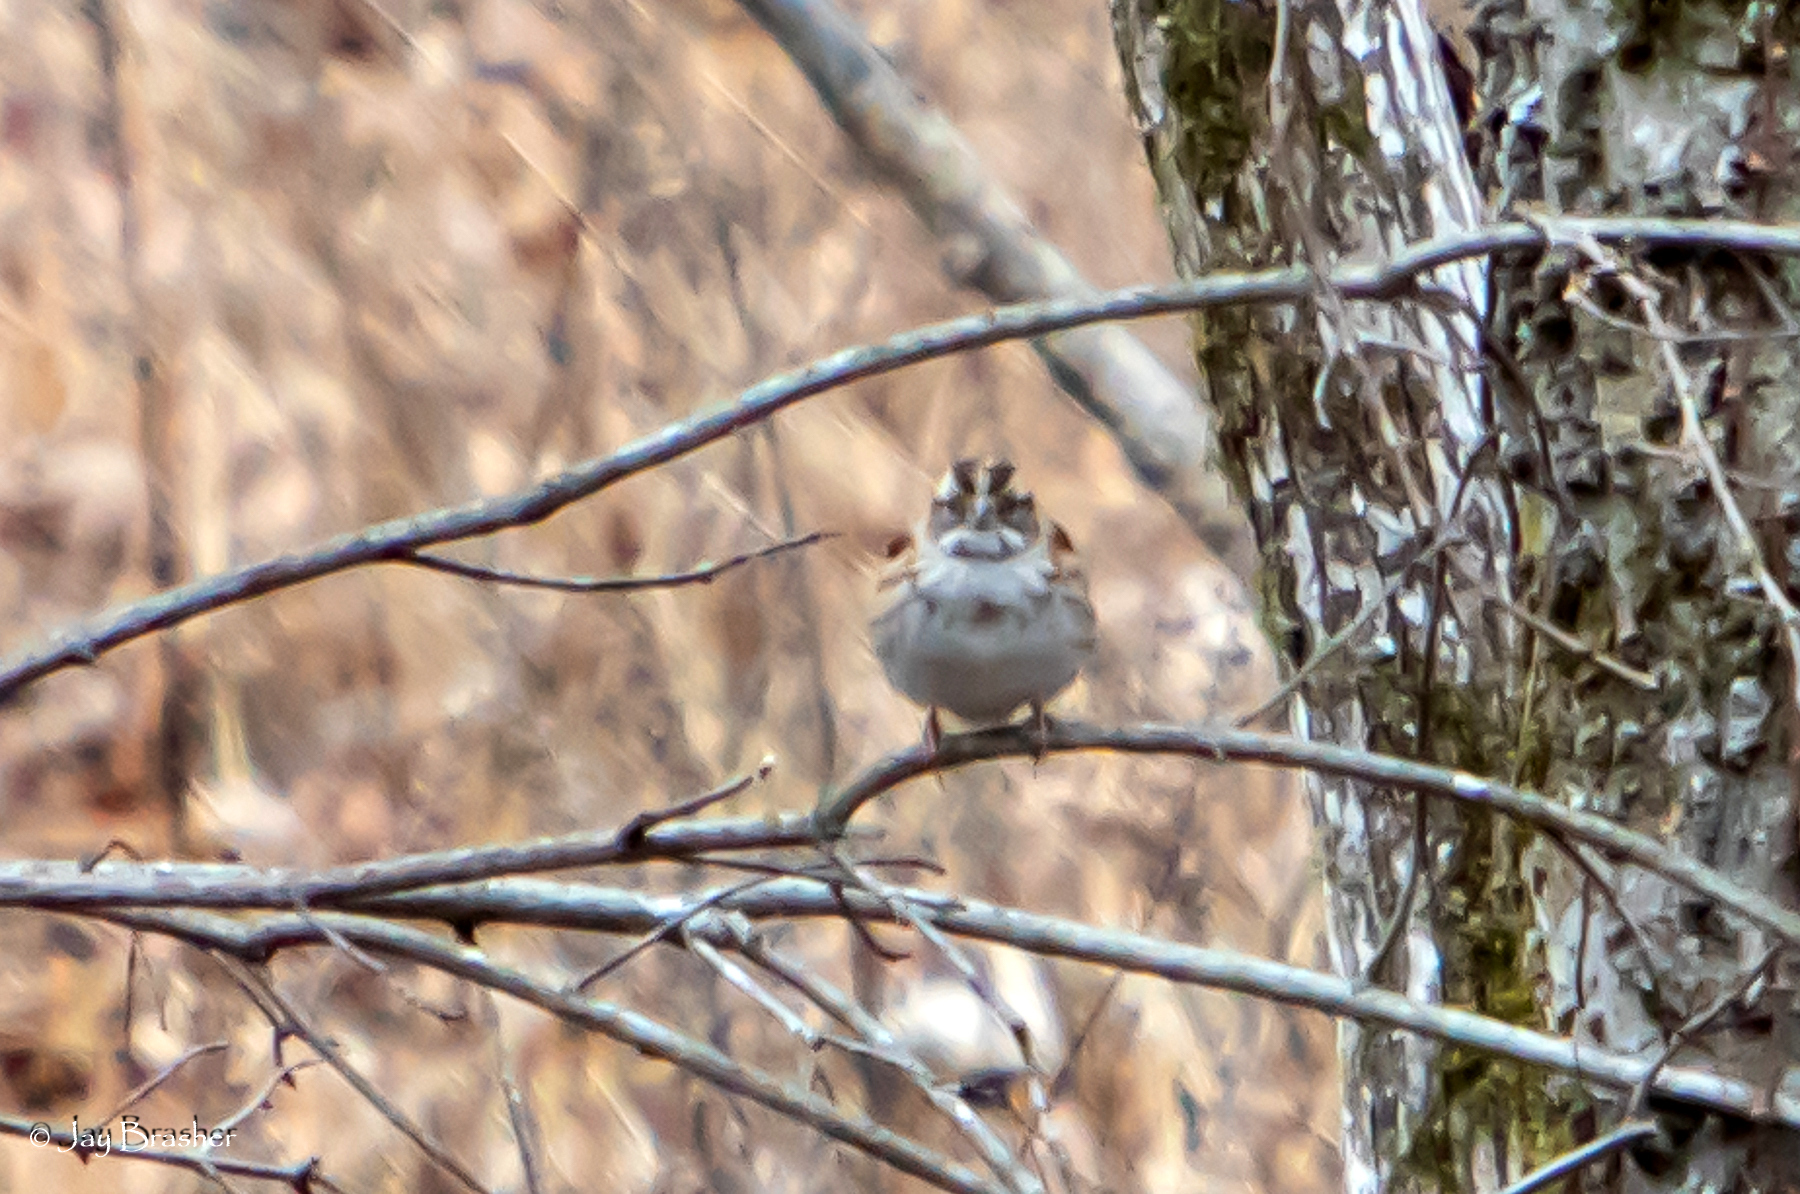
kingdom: Animalia
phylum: Chordata
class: Aves
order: Passeriformes
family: Passerellidae
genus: Zonotrichia
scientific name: Zonotrichia albicollis
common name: White-throated sparrow
